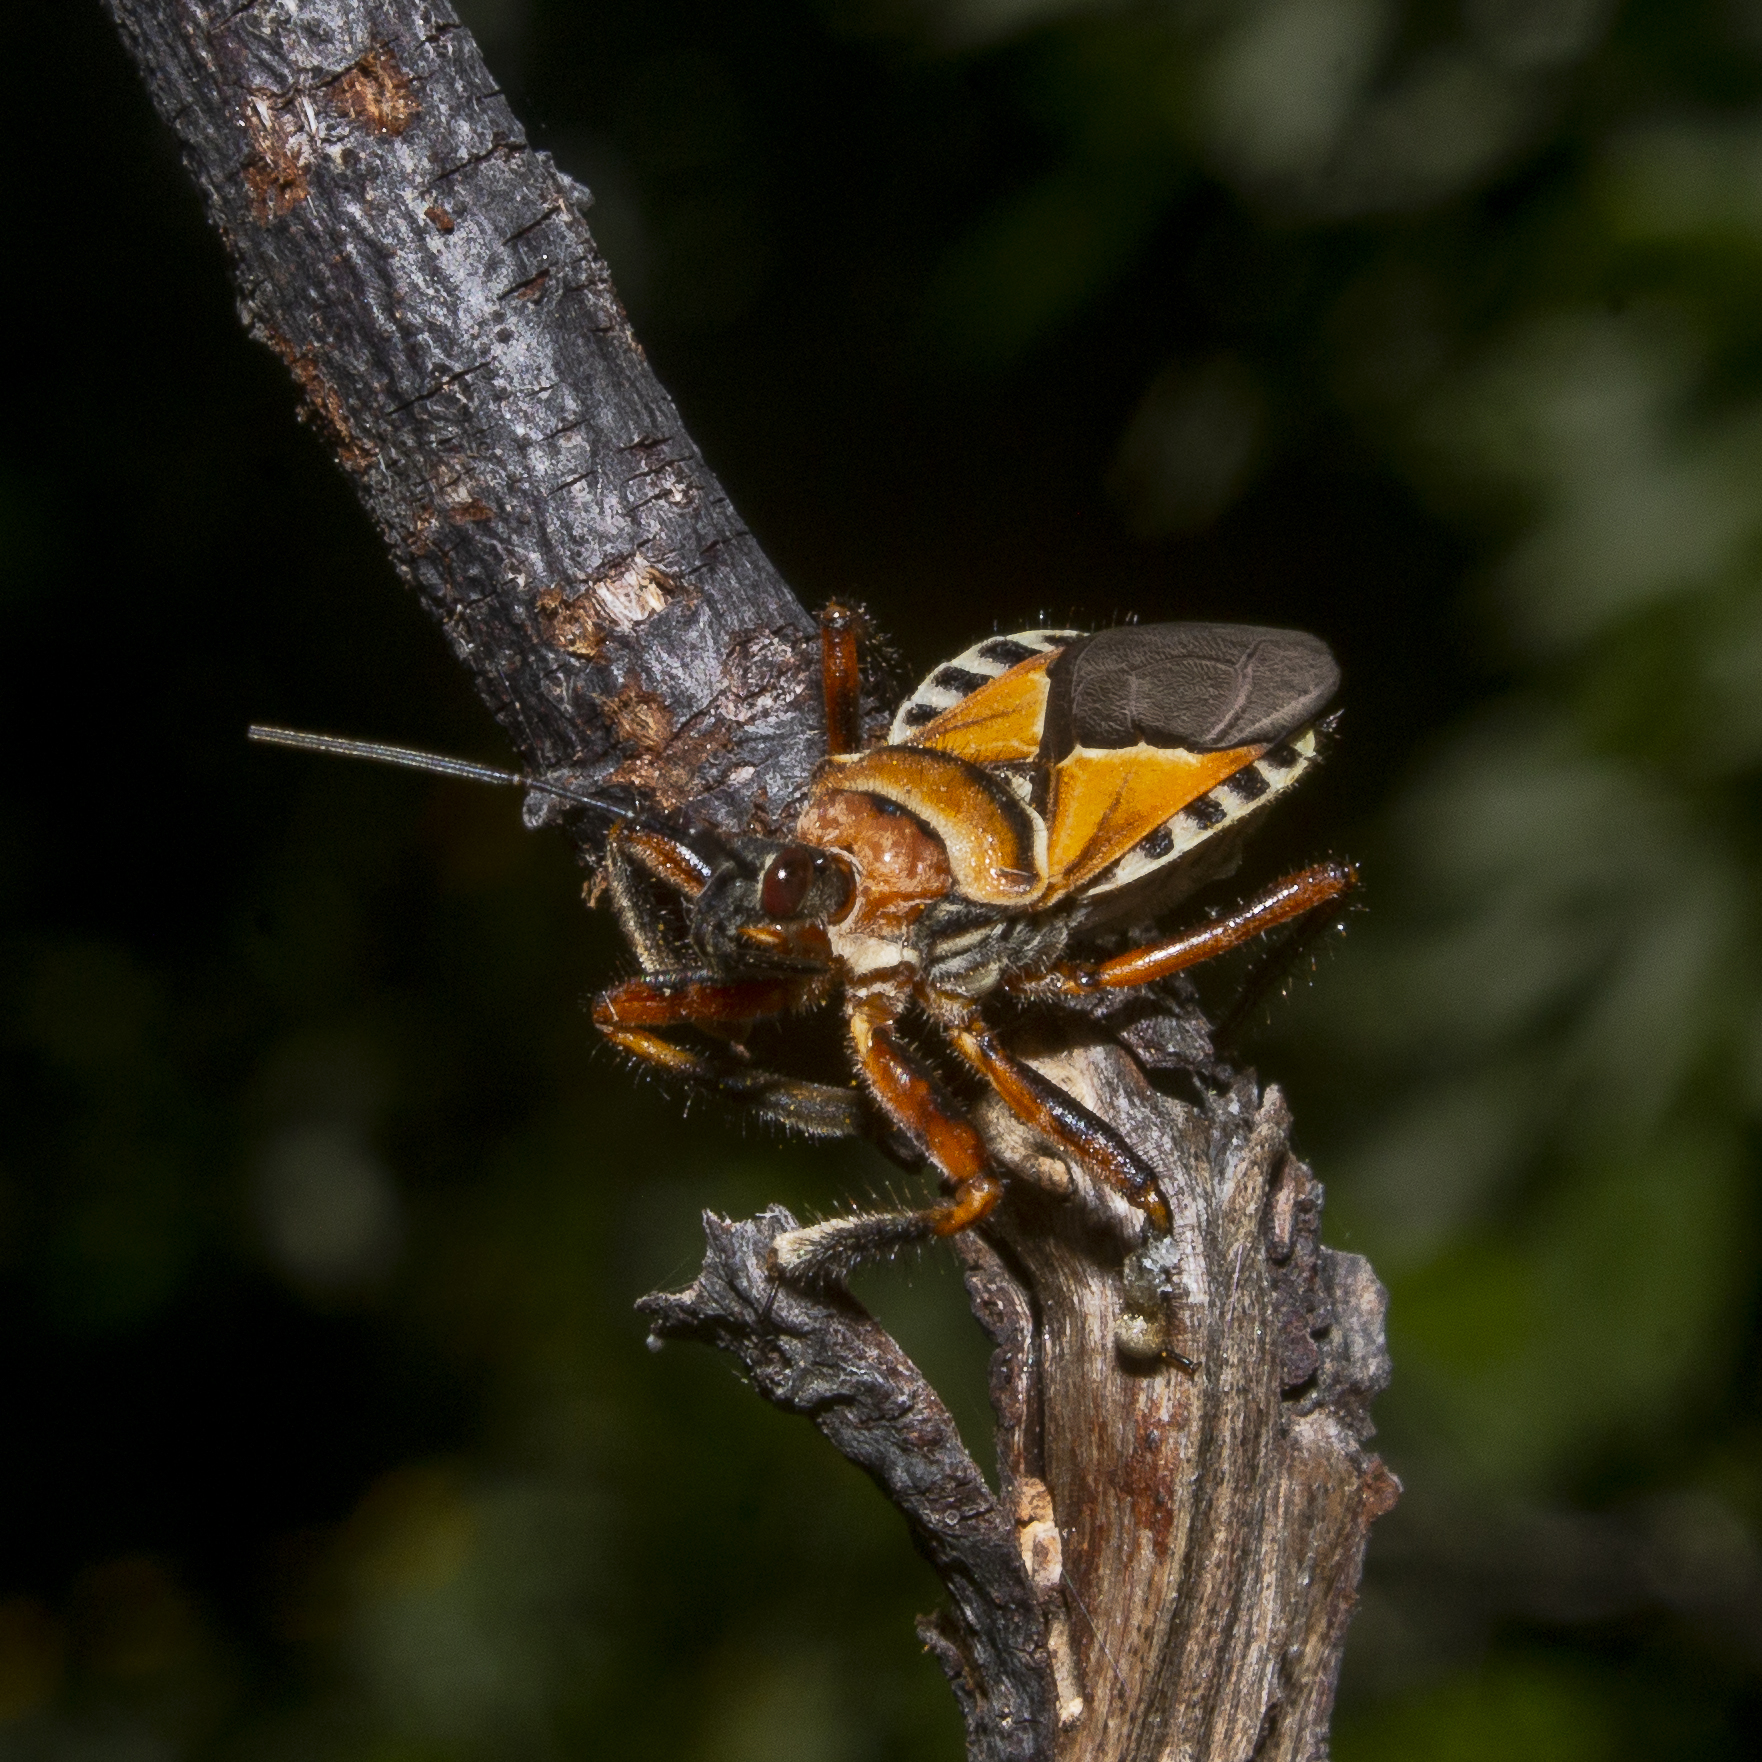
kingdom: Animalia
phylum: Arthropoda
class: Insecta
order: Hemiptera
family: Reduviidae
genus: Apiomerus
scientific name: Apiomerus pictipes
